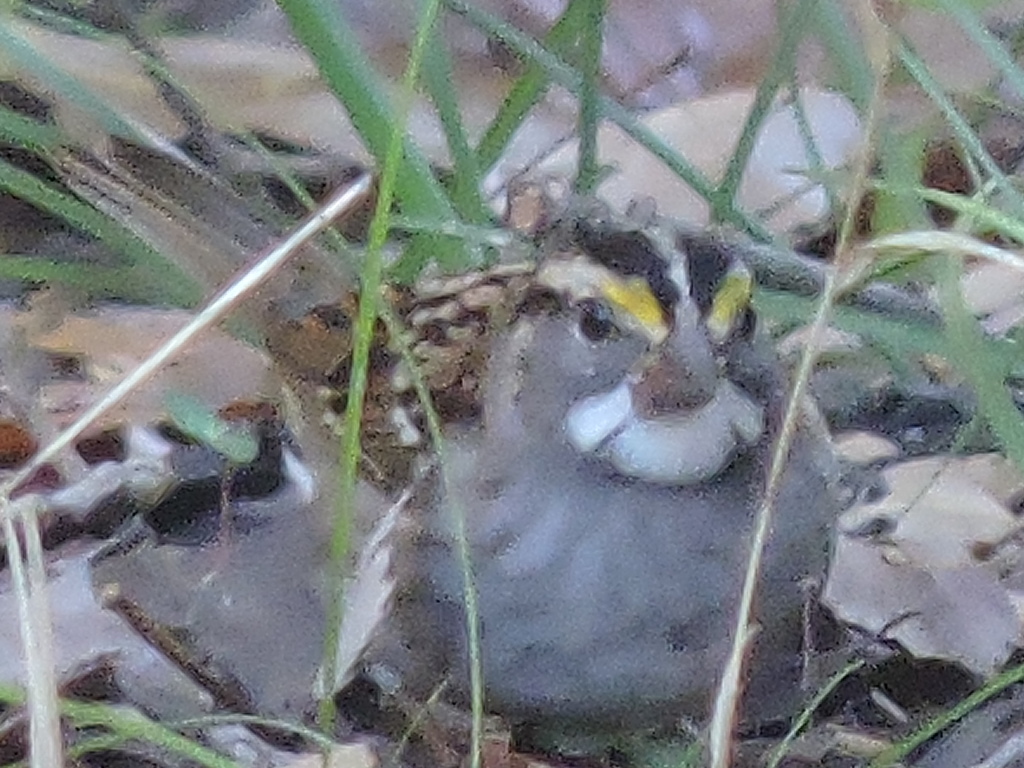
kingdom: Animalia
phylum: Chordata
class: Aves
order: Passeriformes
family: Passerellidae
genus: Zonotrichia
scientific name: Zonotrichia albicollis
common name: White-throated sparrow
